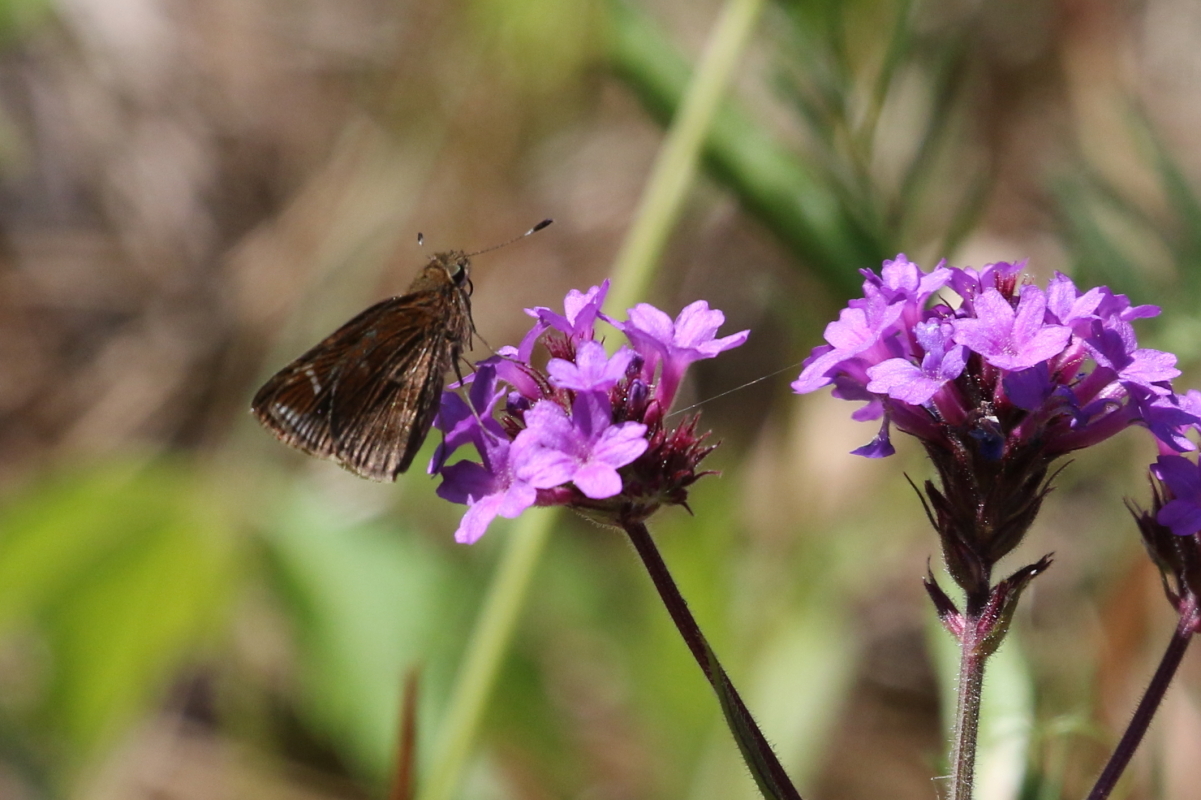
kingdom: Animalia
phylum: Arthropoda
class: Insecta
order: Lepidoptera
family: Hesperiidae
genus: Lerema
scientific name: Lerema accius
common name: Clouded skipper
